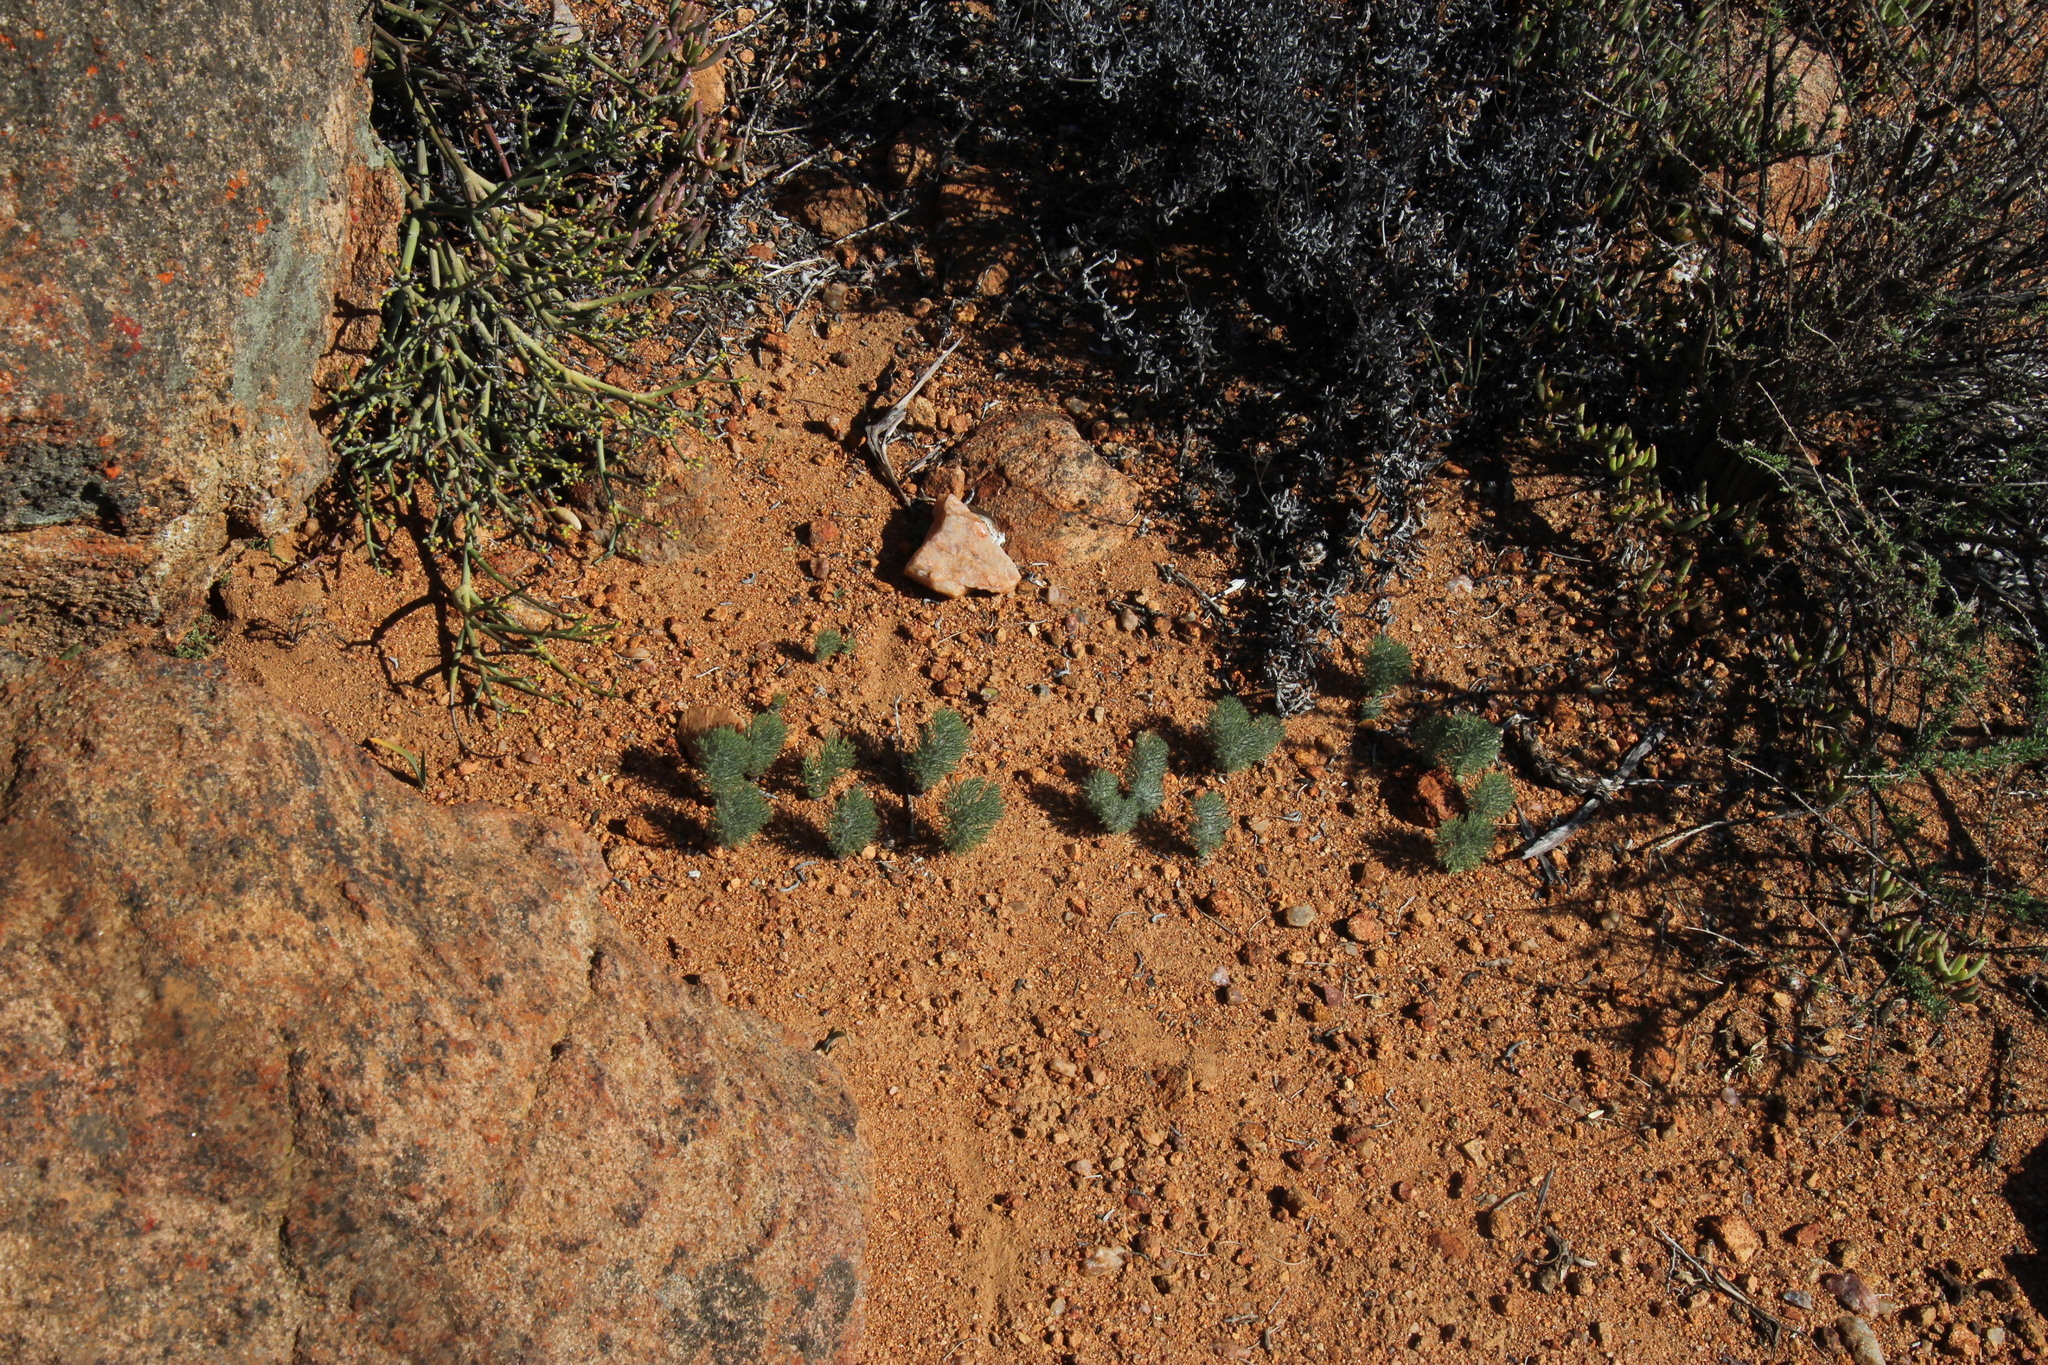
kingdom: Plantae
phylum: Tracheophyta
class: Liliopsida
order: Asparagales
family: Asparagaceae
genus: Eriospermum
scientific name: Eriospermum paradoxum
